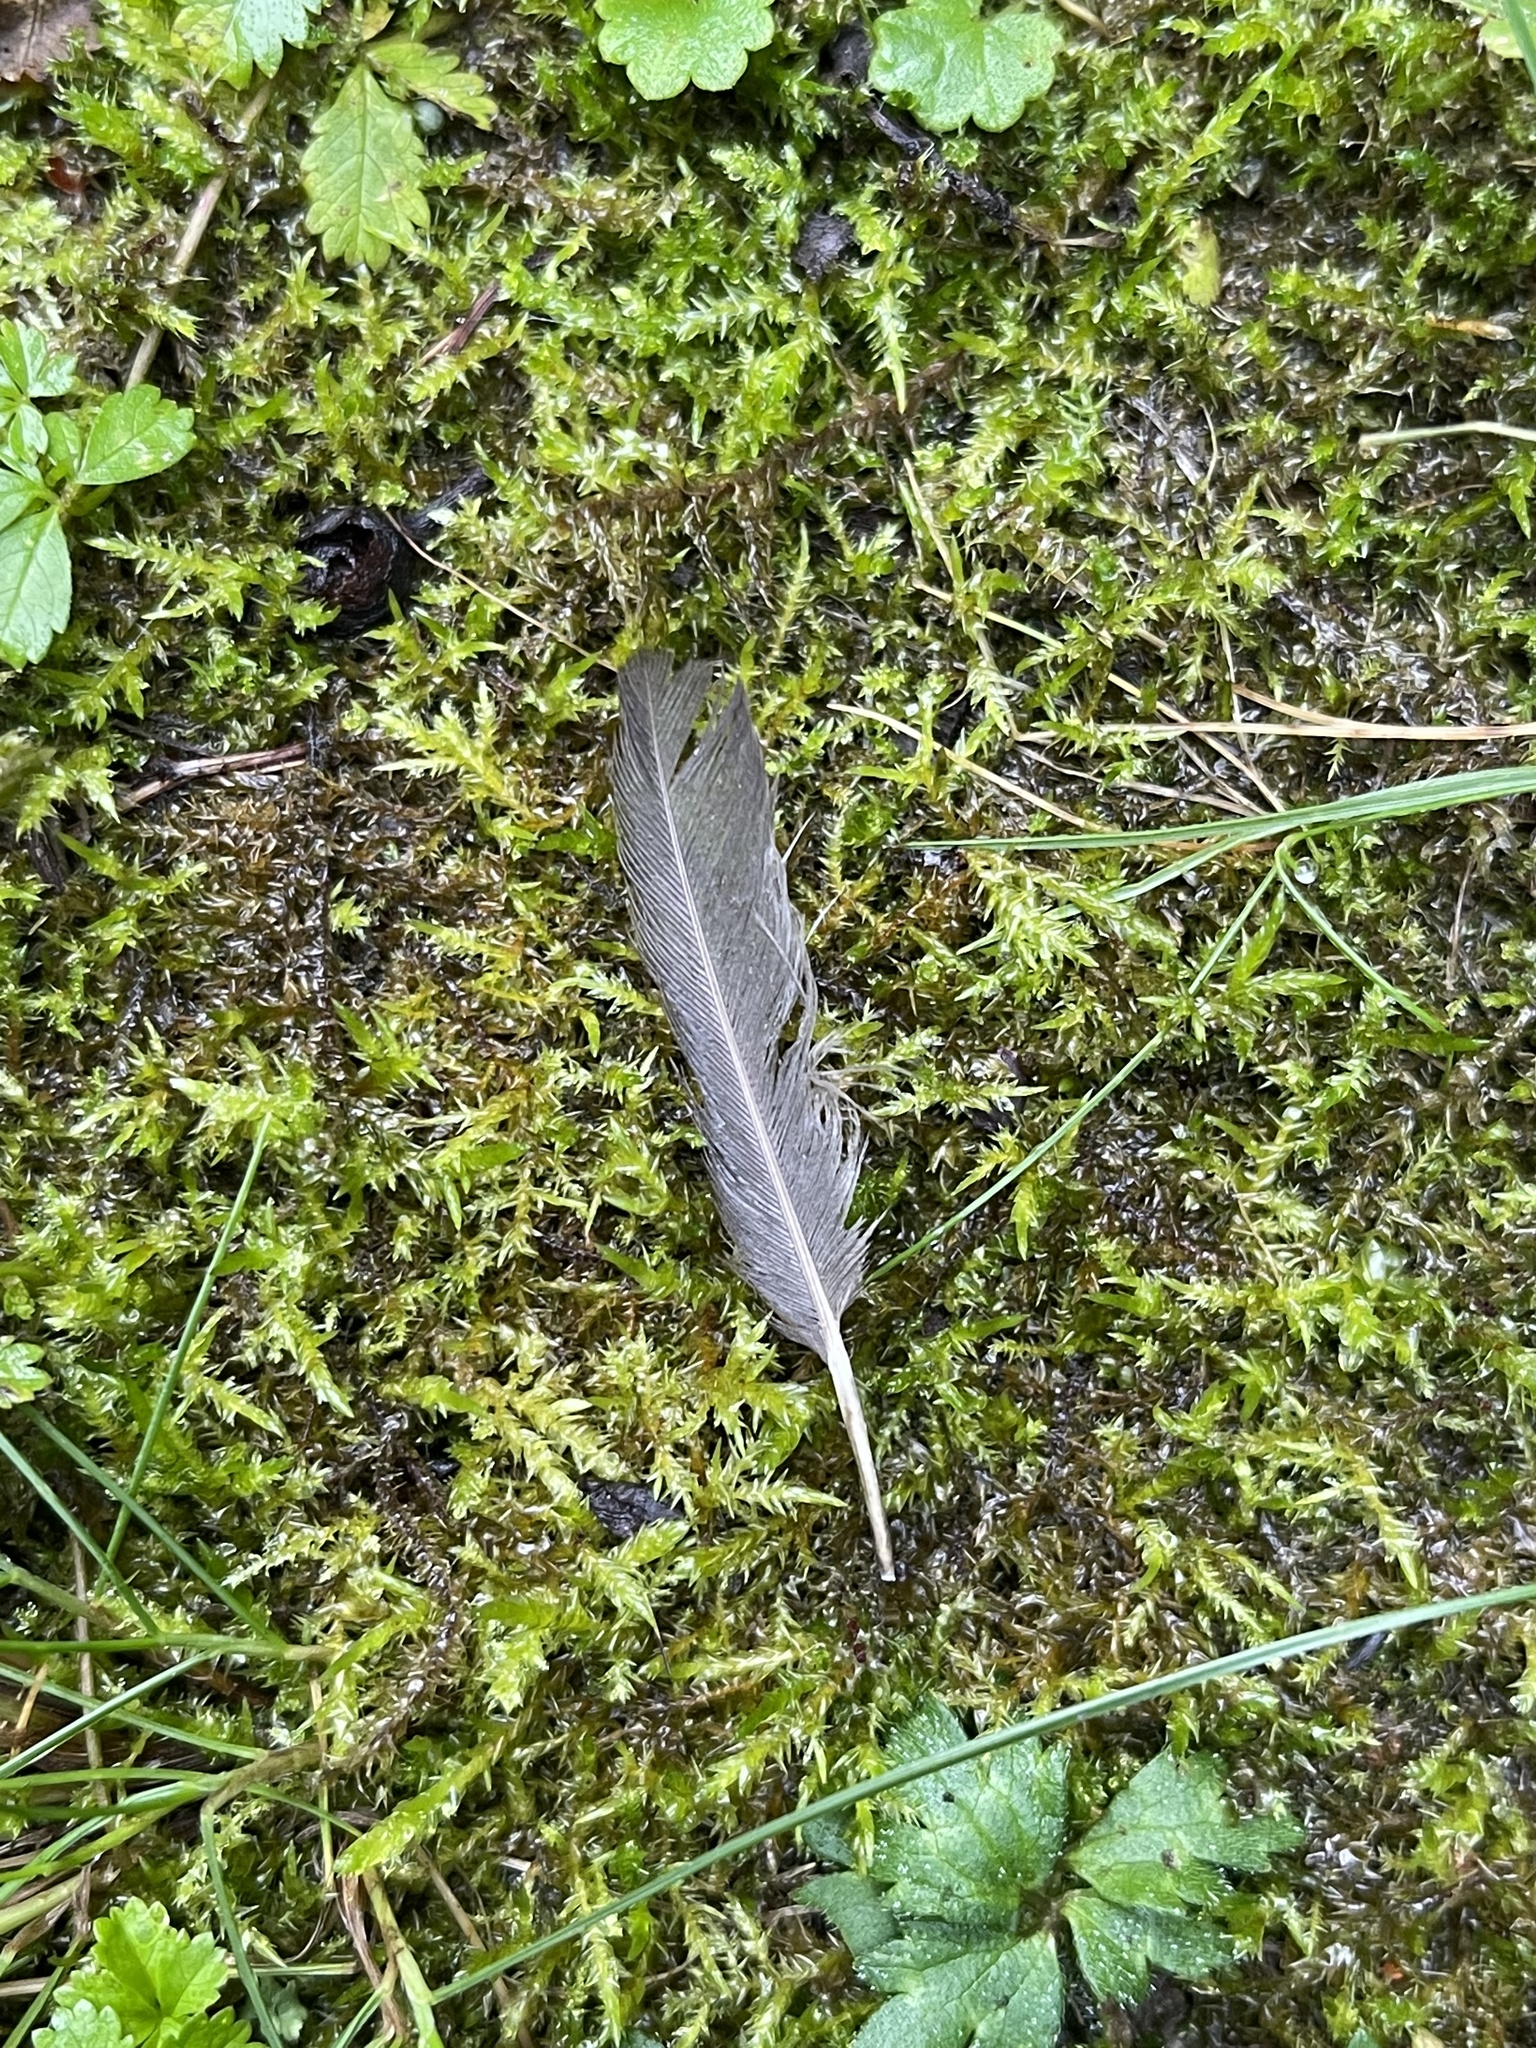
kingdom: Animalia
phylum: Chordata
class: Aves
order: Passeriformes
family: Turdidae
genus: Turdus
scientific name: Turdus merula
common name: Common blackbird
